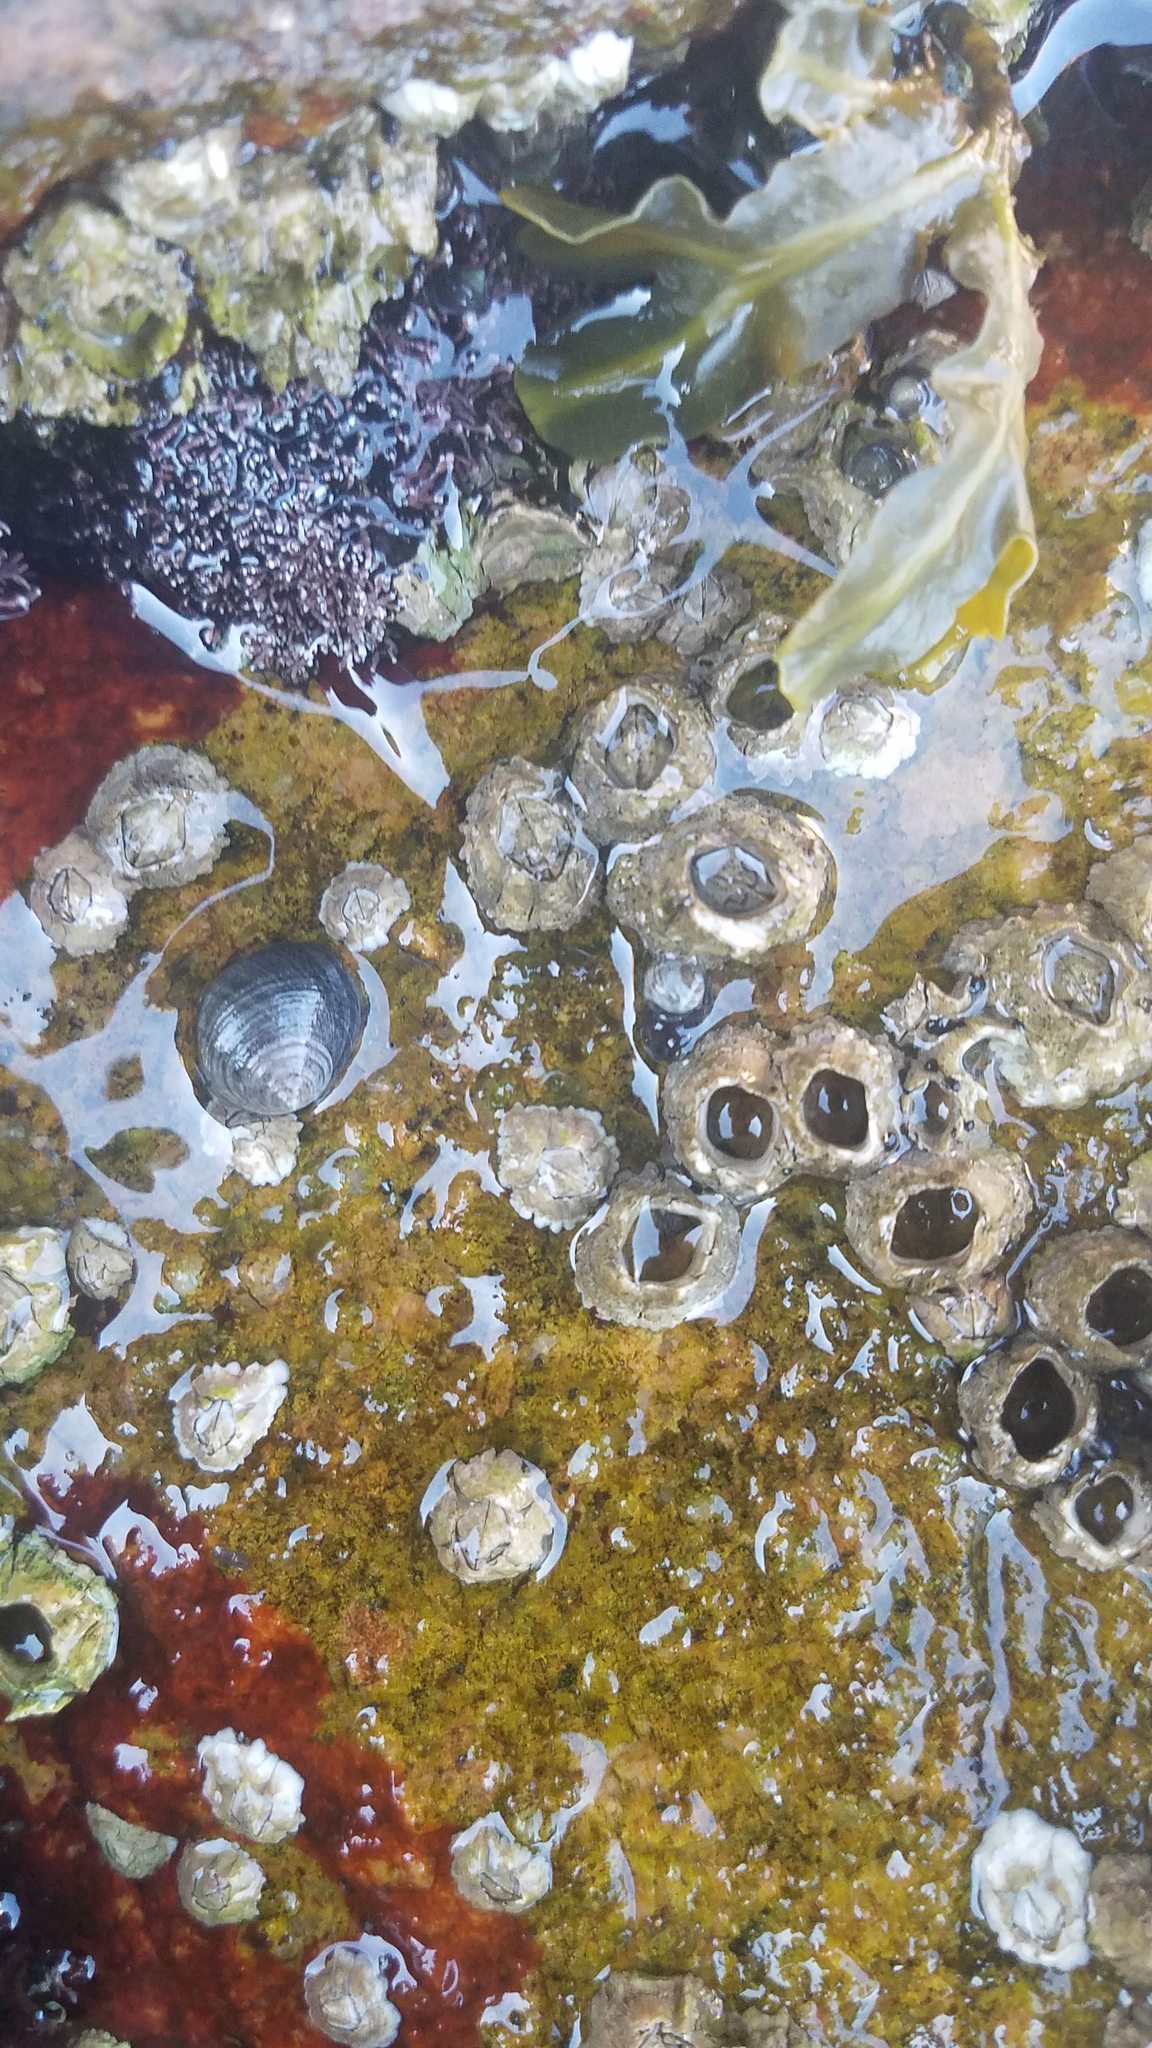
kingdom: Animalia
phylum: Arthropoda
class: Maxillopoda
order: Sessilia
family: Archaeobalanidae
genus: Semibalanus
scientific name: Semibalanus balanoides
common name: Acorn barnacle
